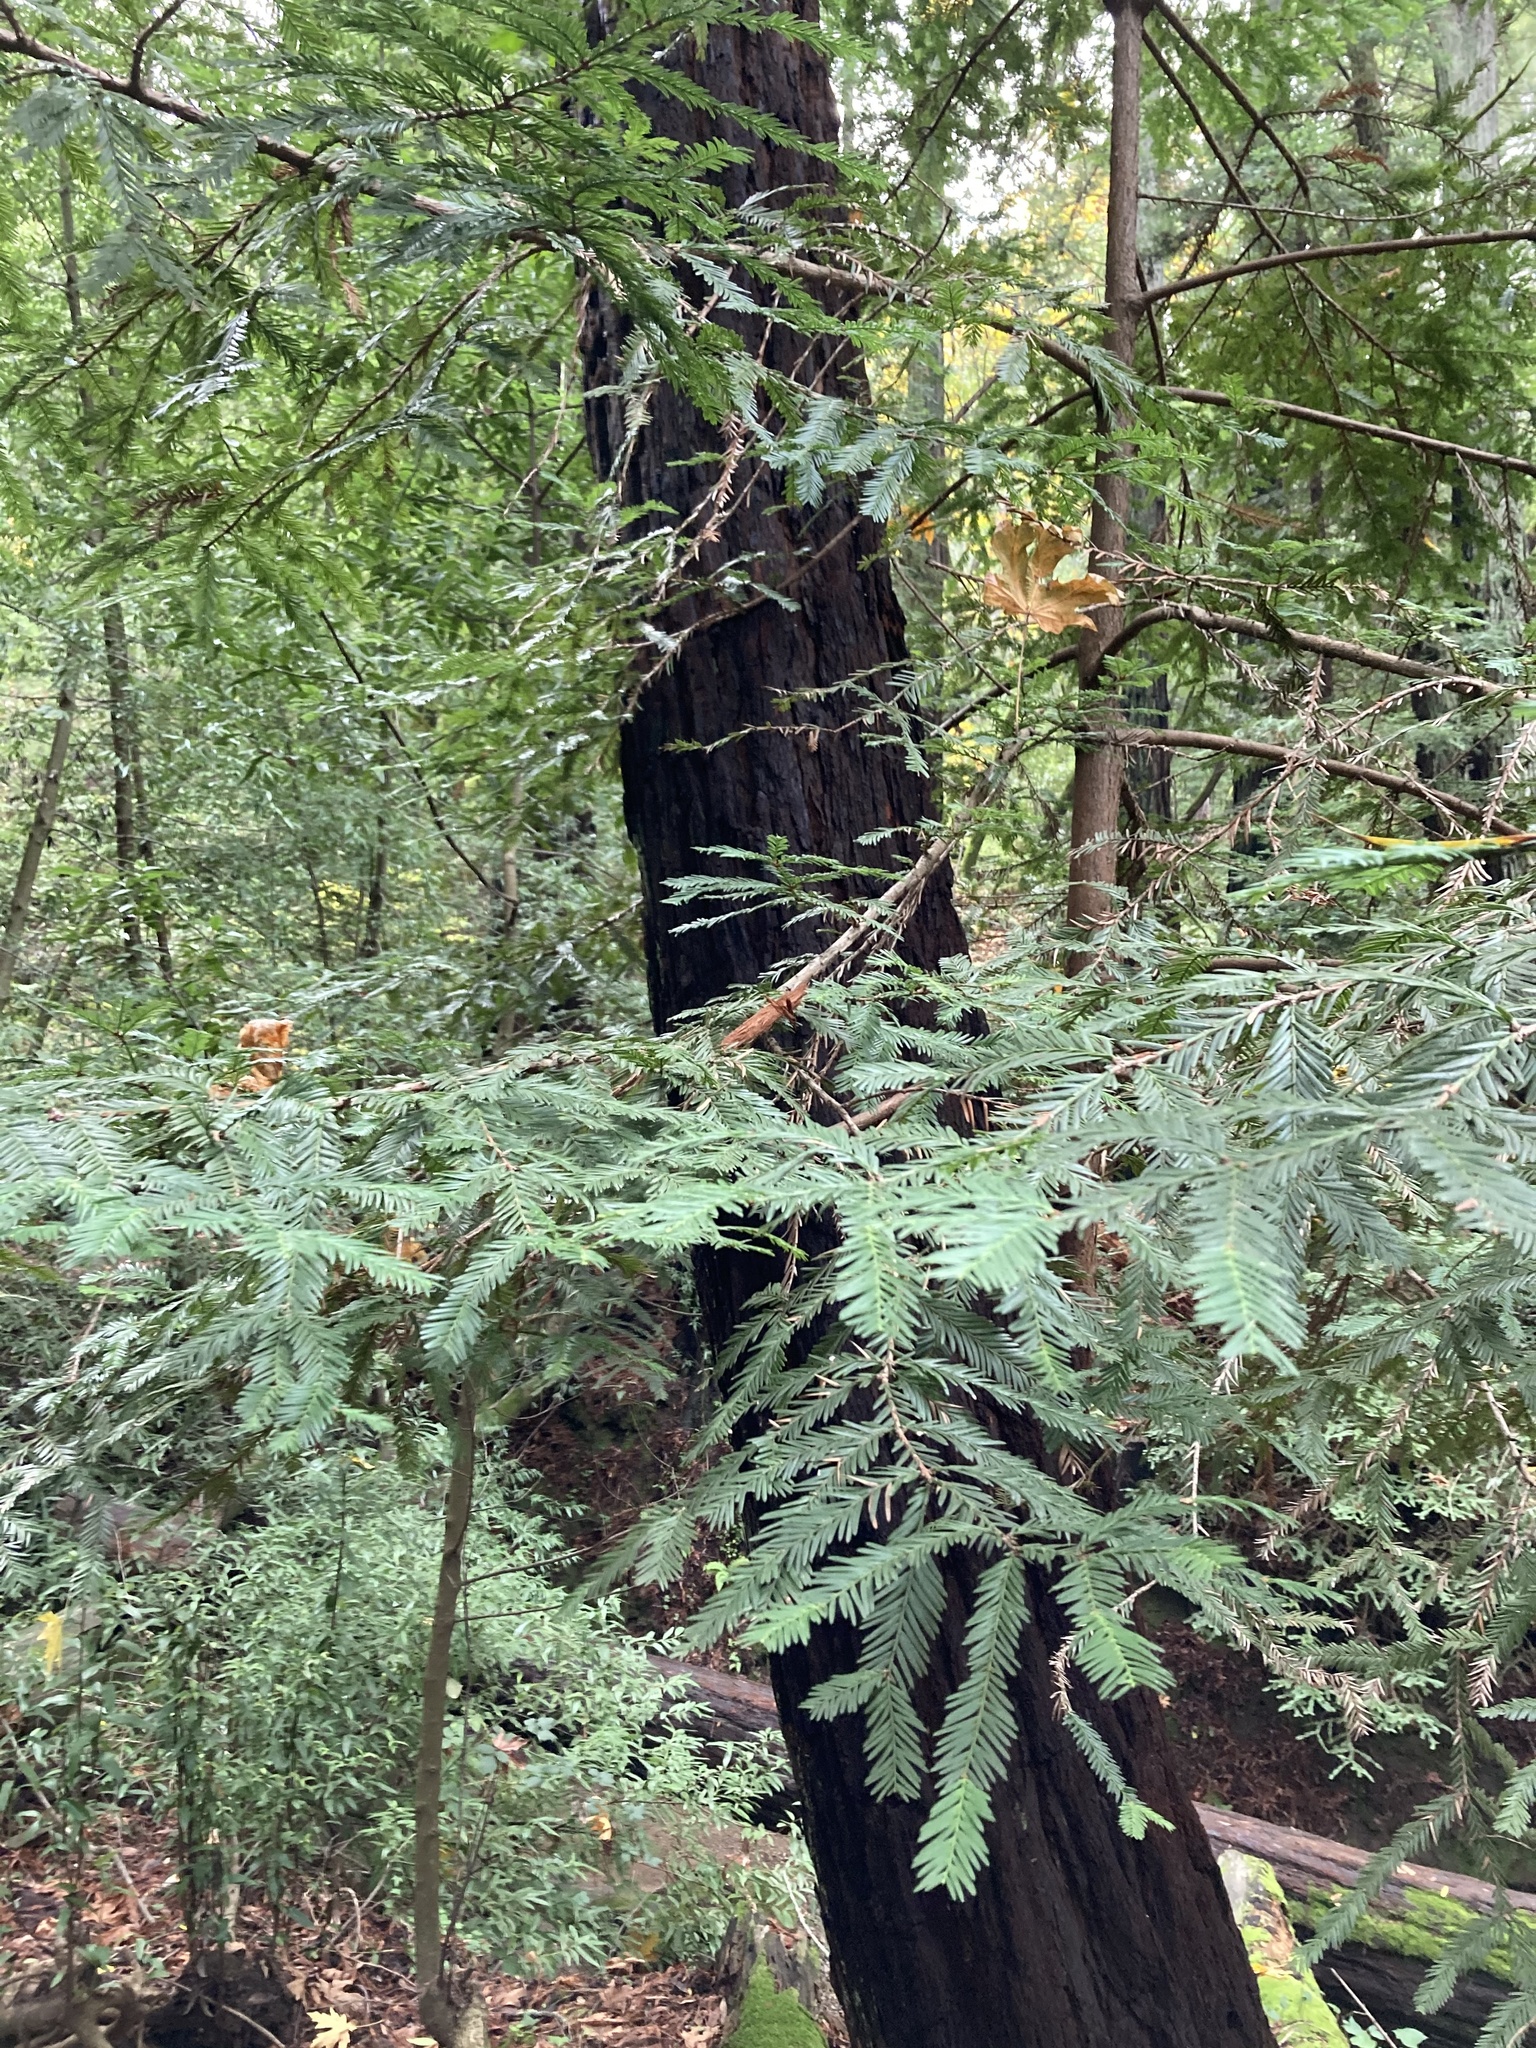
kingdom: Plantae
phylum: Tracheophyta
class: Pinopsida
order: Pinales
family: Cupressaceae
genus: Sequoia
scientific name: Sequoia sempervirens
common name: Coast redwood
